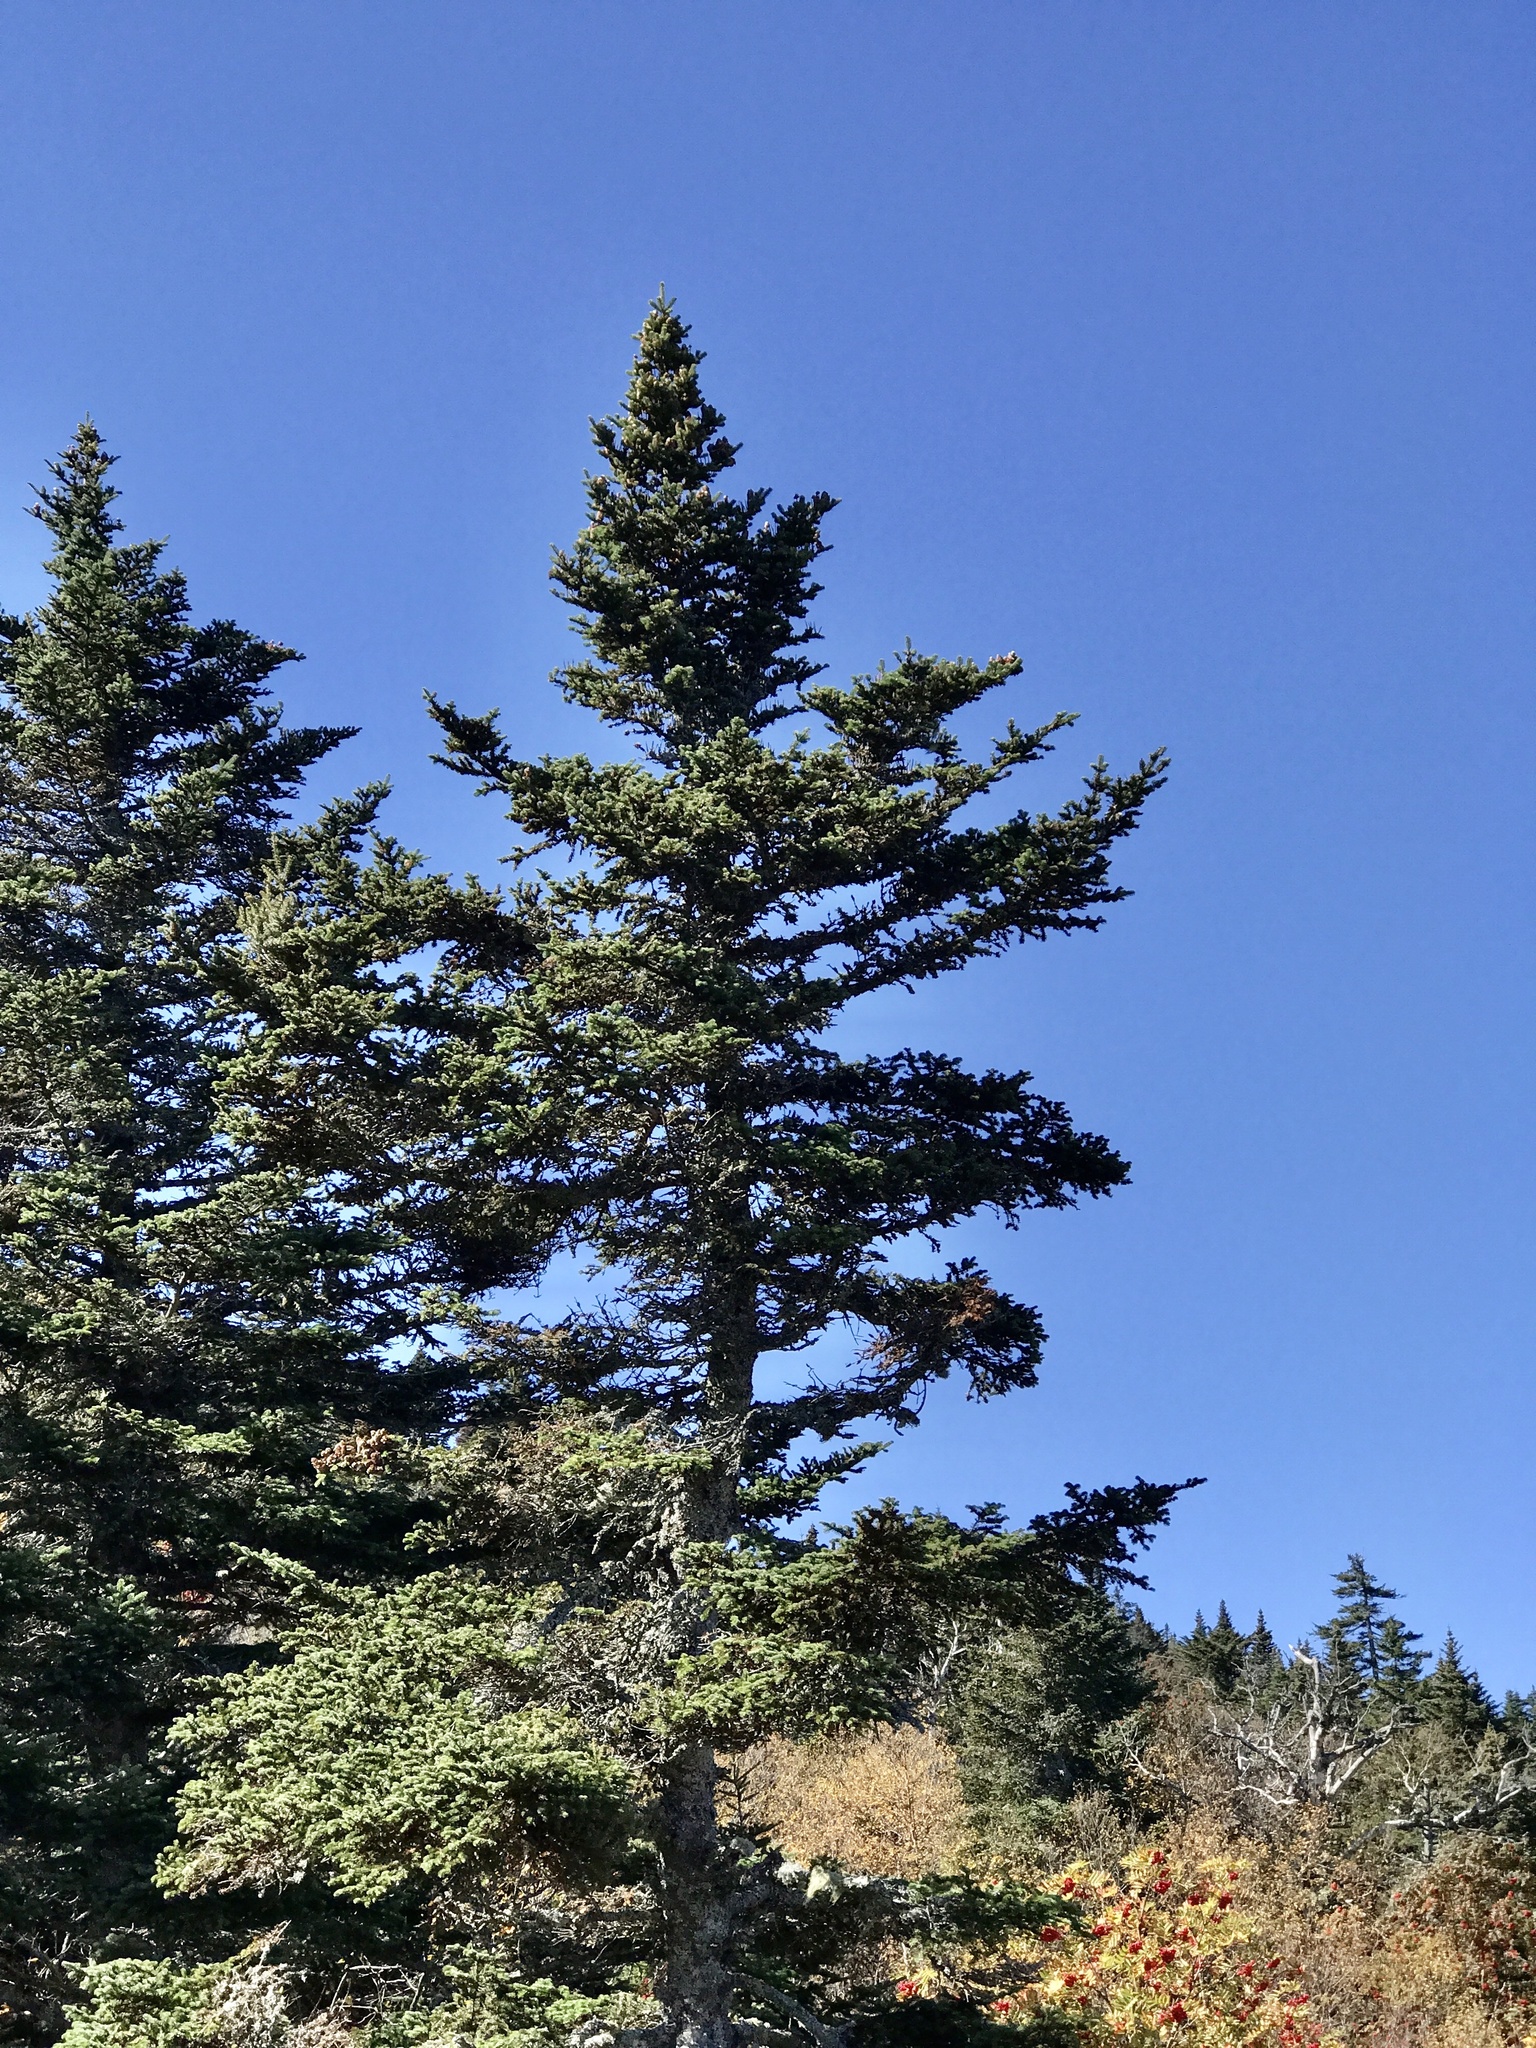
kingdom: Plantae
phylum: Tracheophyta
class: Pinopsida
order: Pinales
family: Pinaceae
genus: Abies
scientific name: Abies balsamea
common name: Balsam fir
